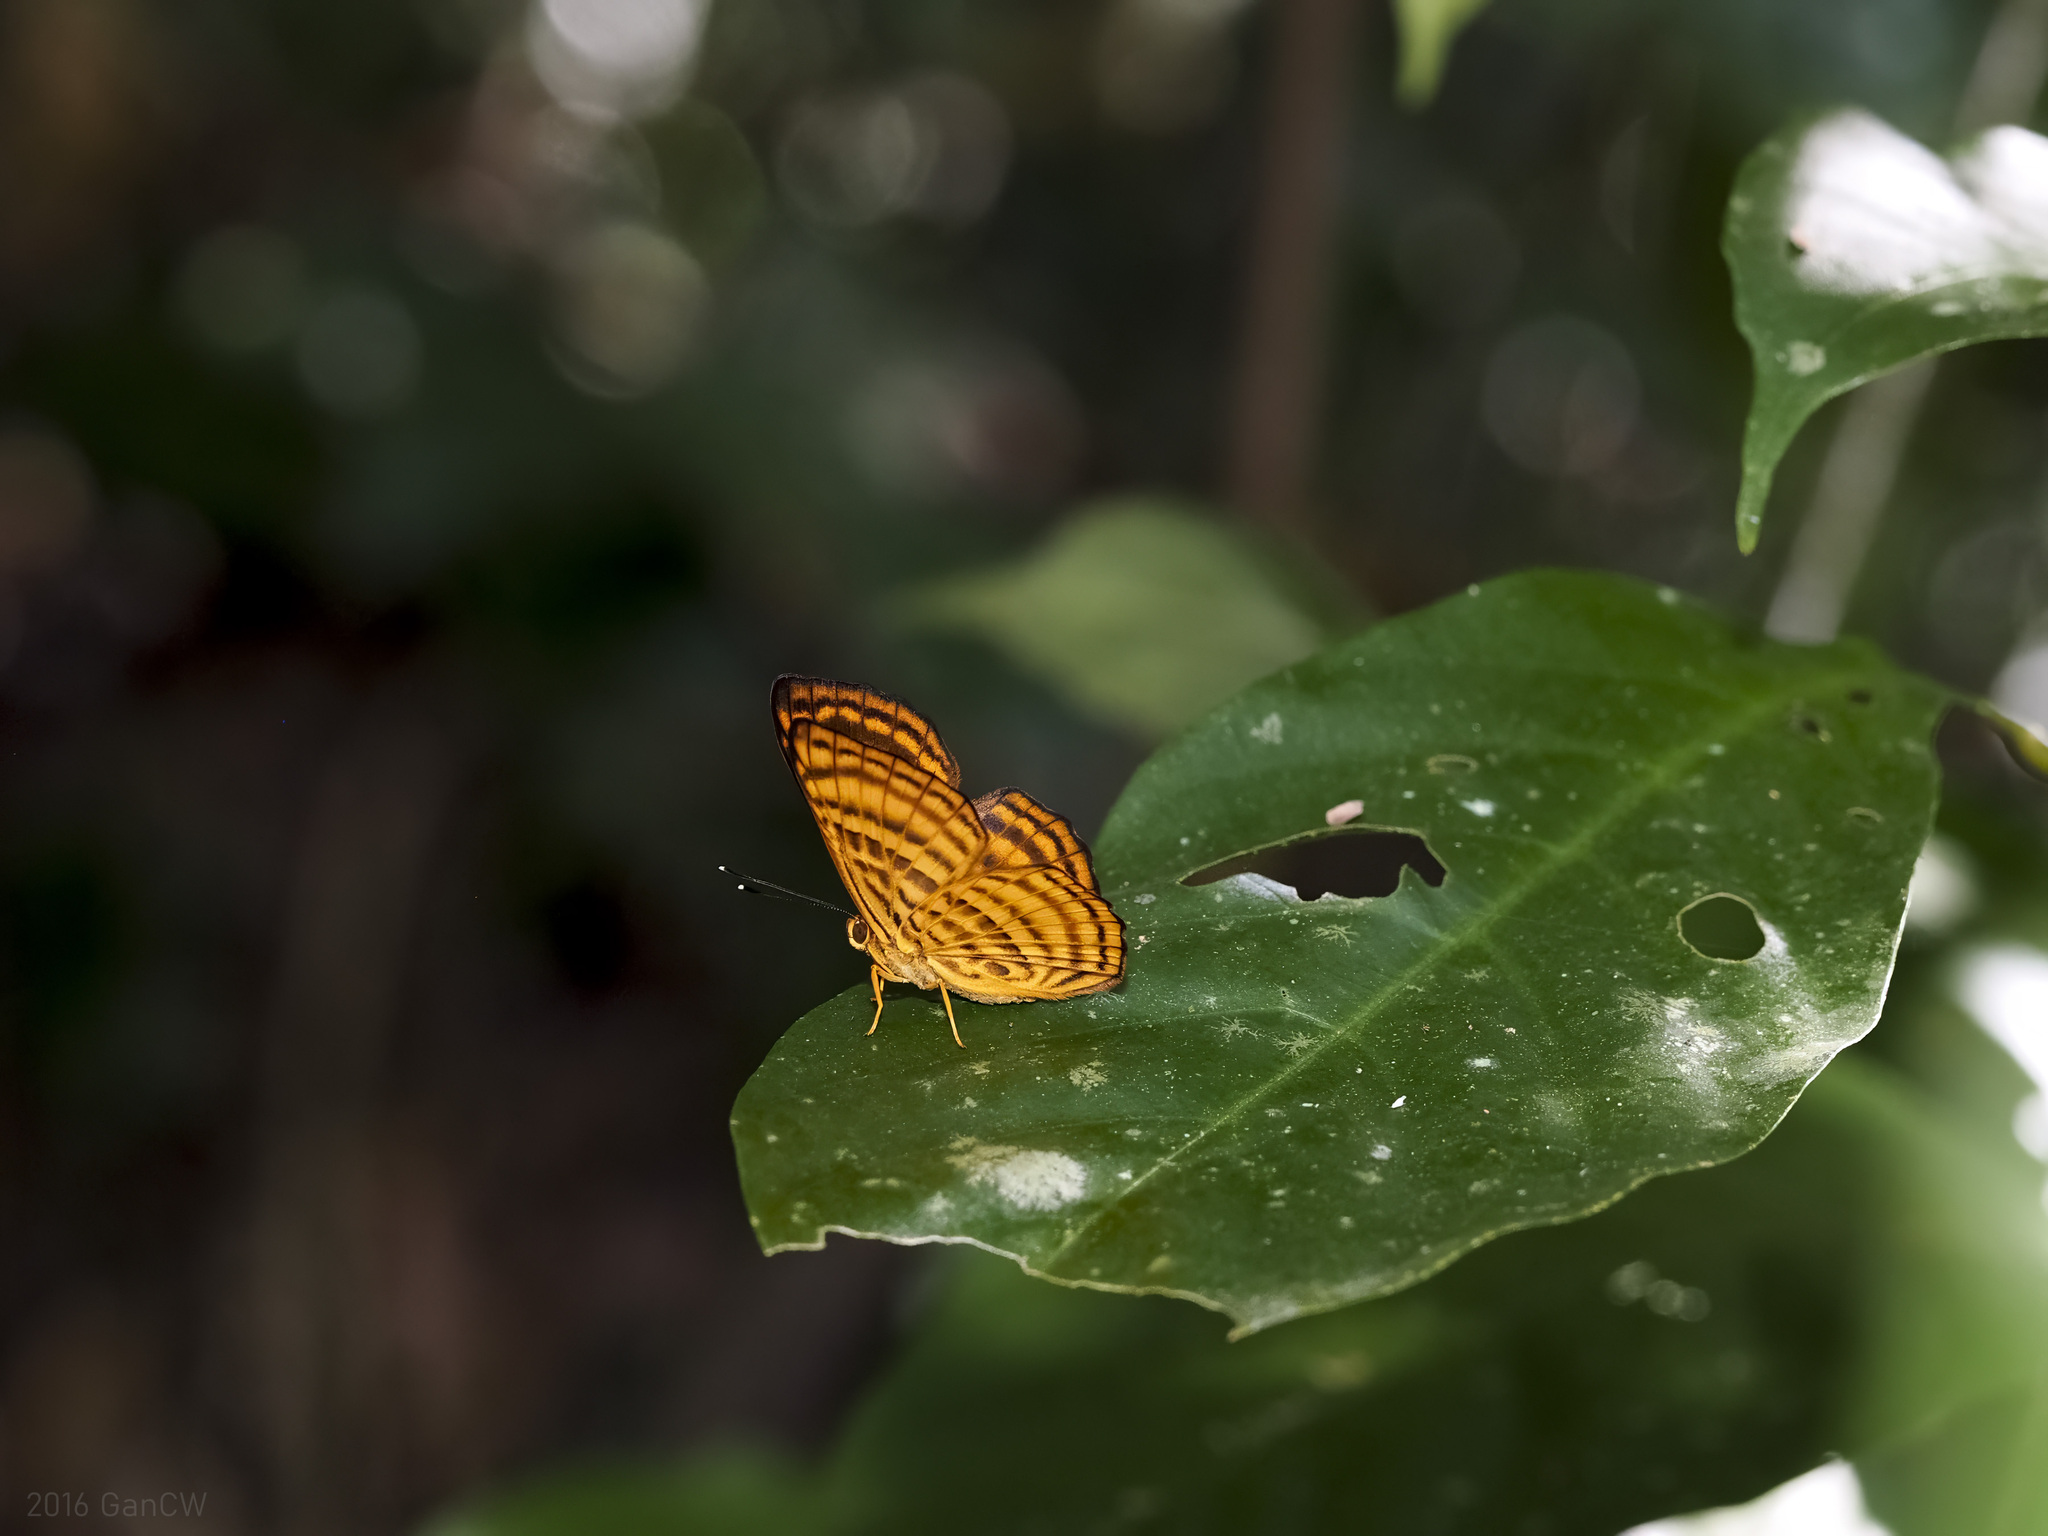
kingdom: Animalia
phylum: Arthropoda
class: Insecta
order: Lepidoptera
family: Riodinidae
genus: Zemeros
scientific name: Zemeros emesoides
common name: Malay punchinello
